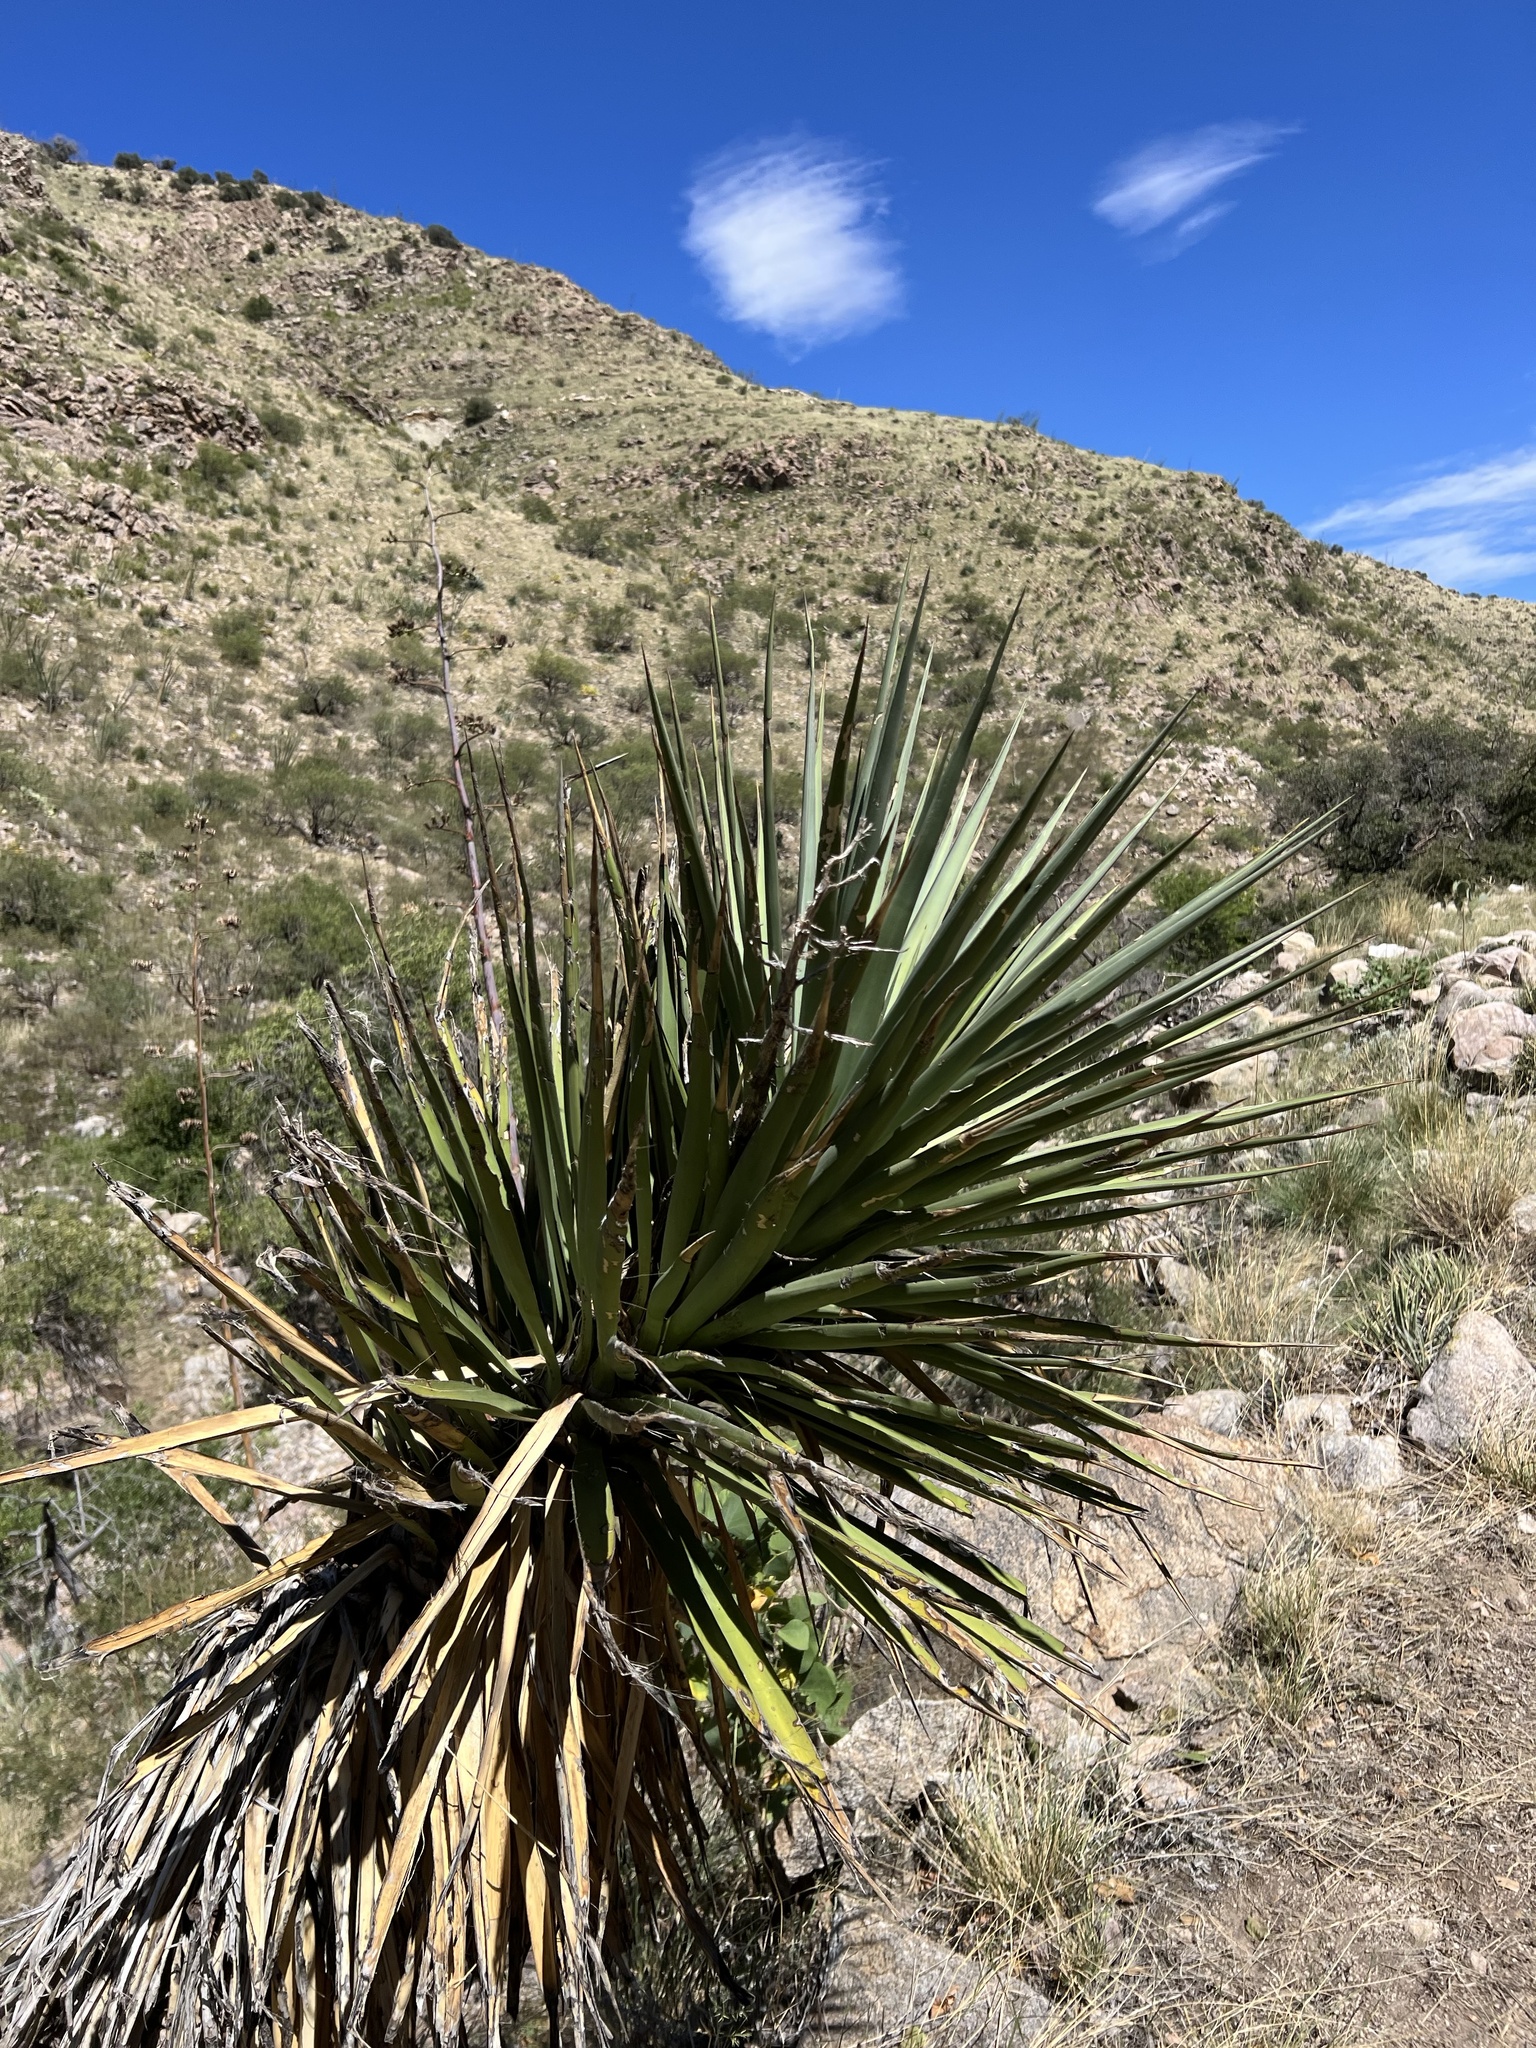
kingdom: Plantae
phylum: Tracheophyta
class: Liliopsida
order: Asparagales
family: Asparagaceae
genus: Yucca
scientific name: Yucca schottii
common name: Hoary yucca
